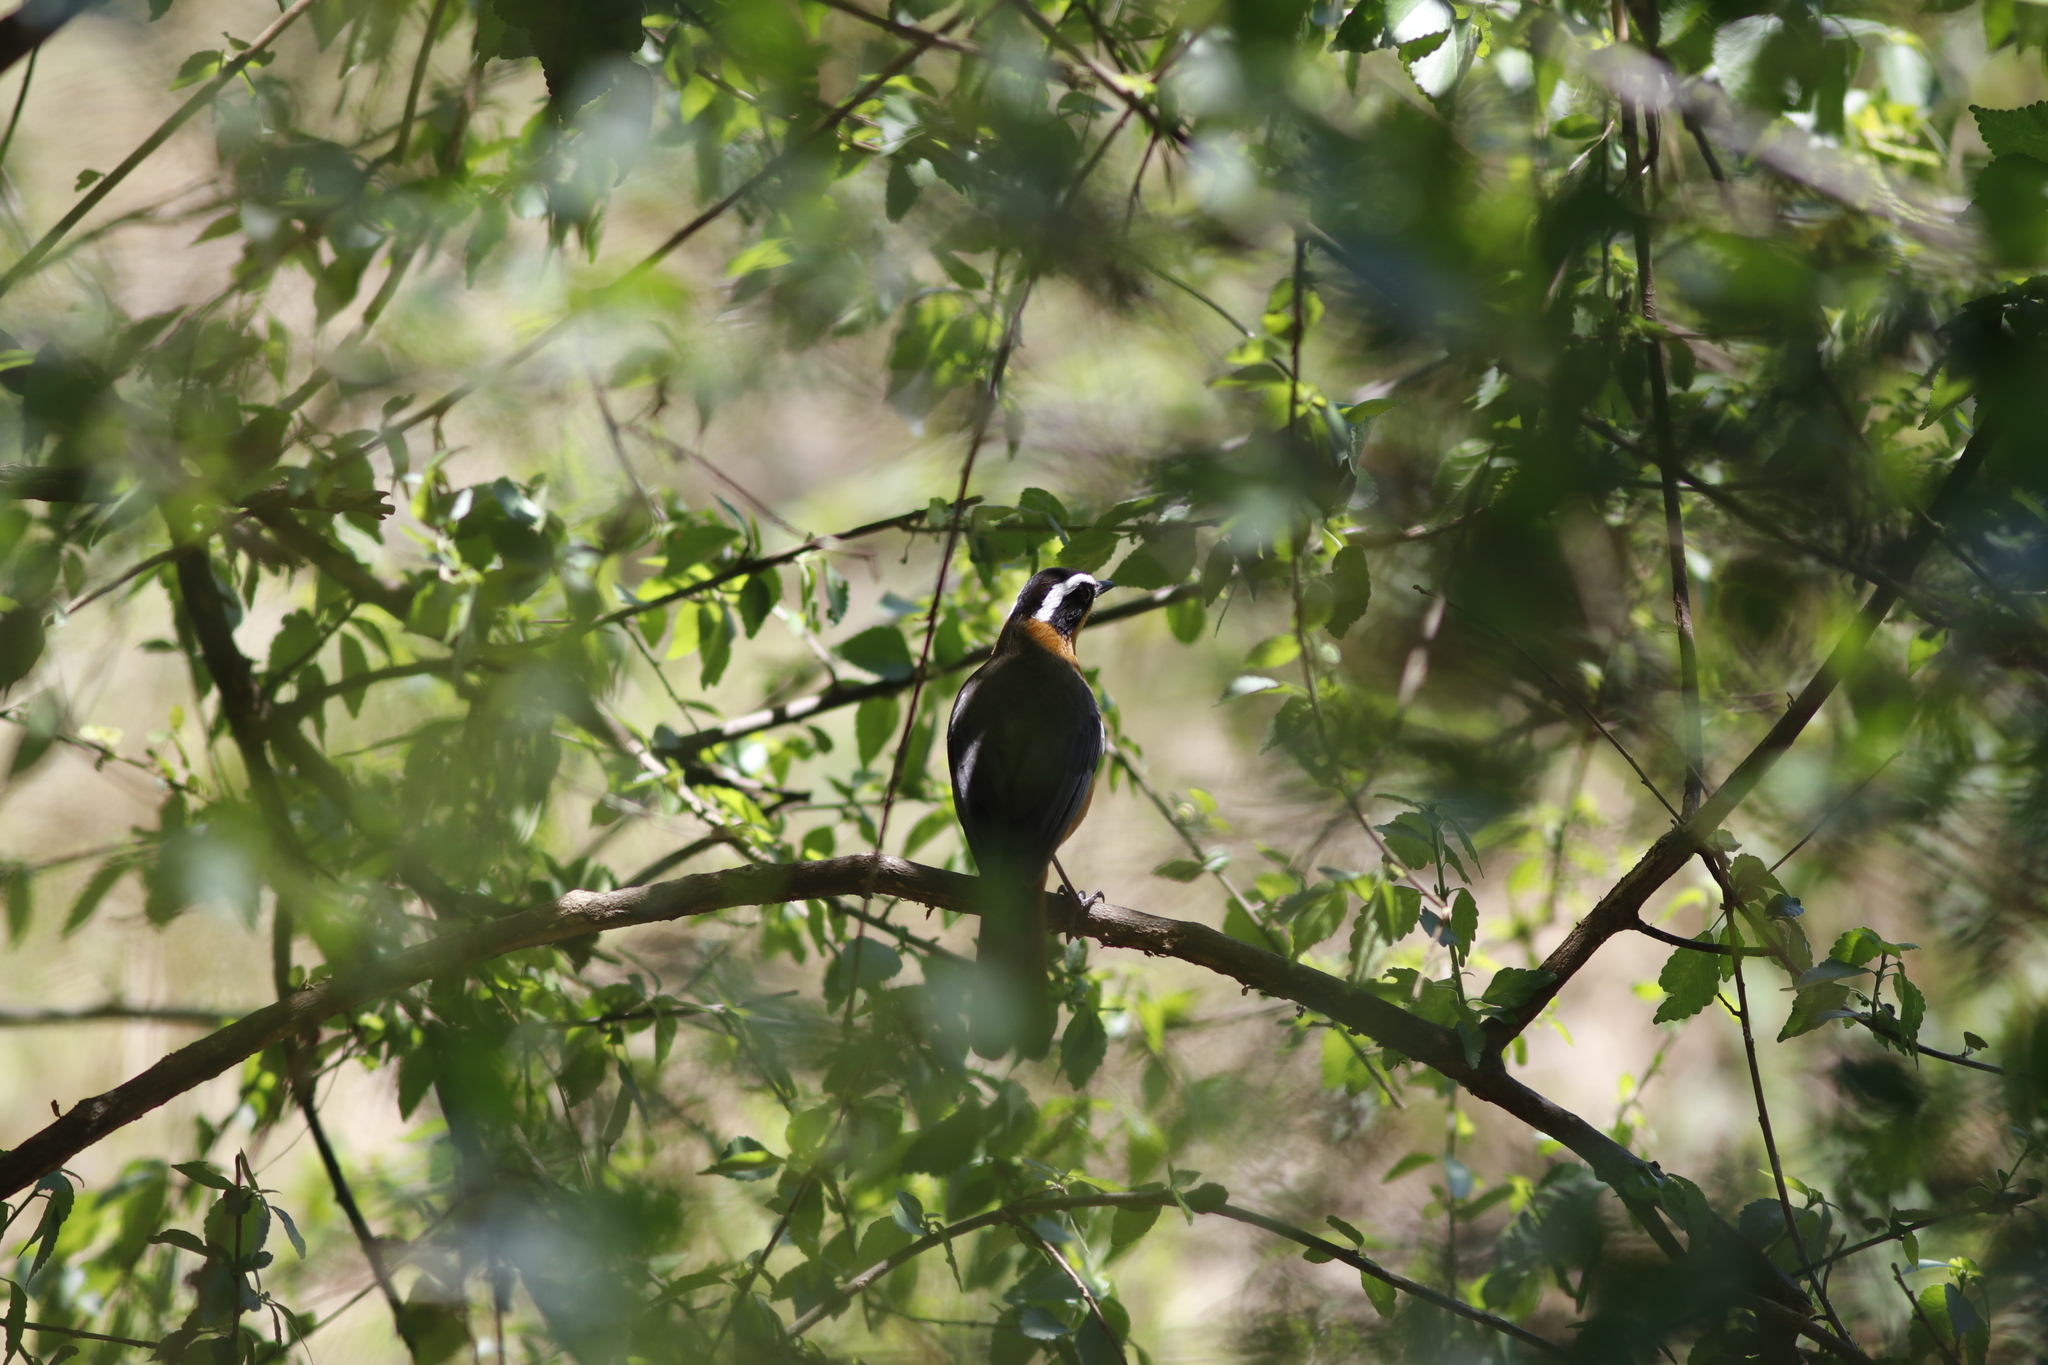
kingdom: Animalia
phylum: Chordata
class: Aves
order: Passeriformes
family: Muscicapidae
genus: Cossypha
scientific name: Cossypha heuglini
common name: White-browed robin-chat
